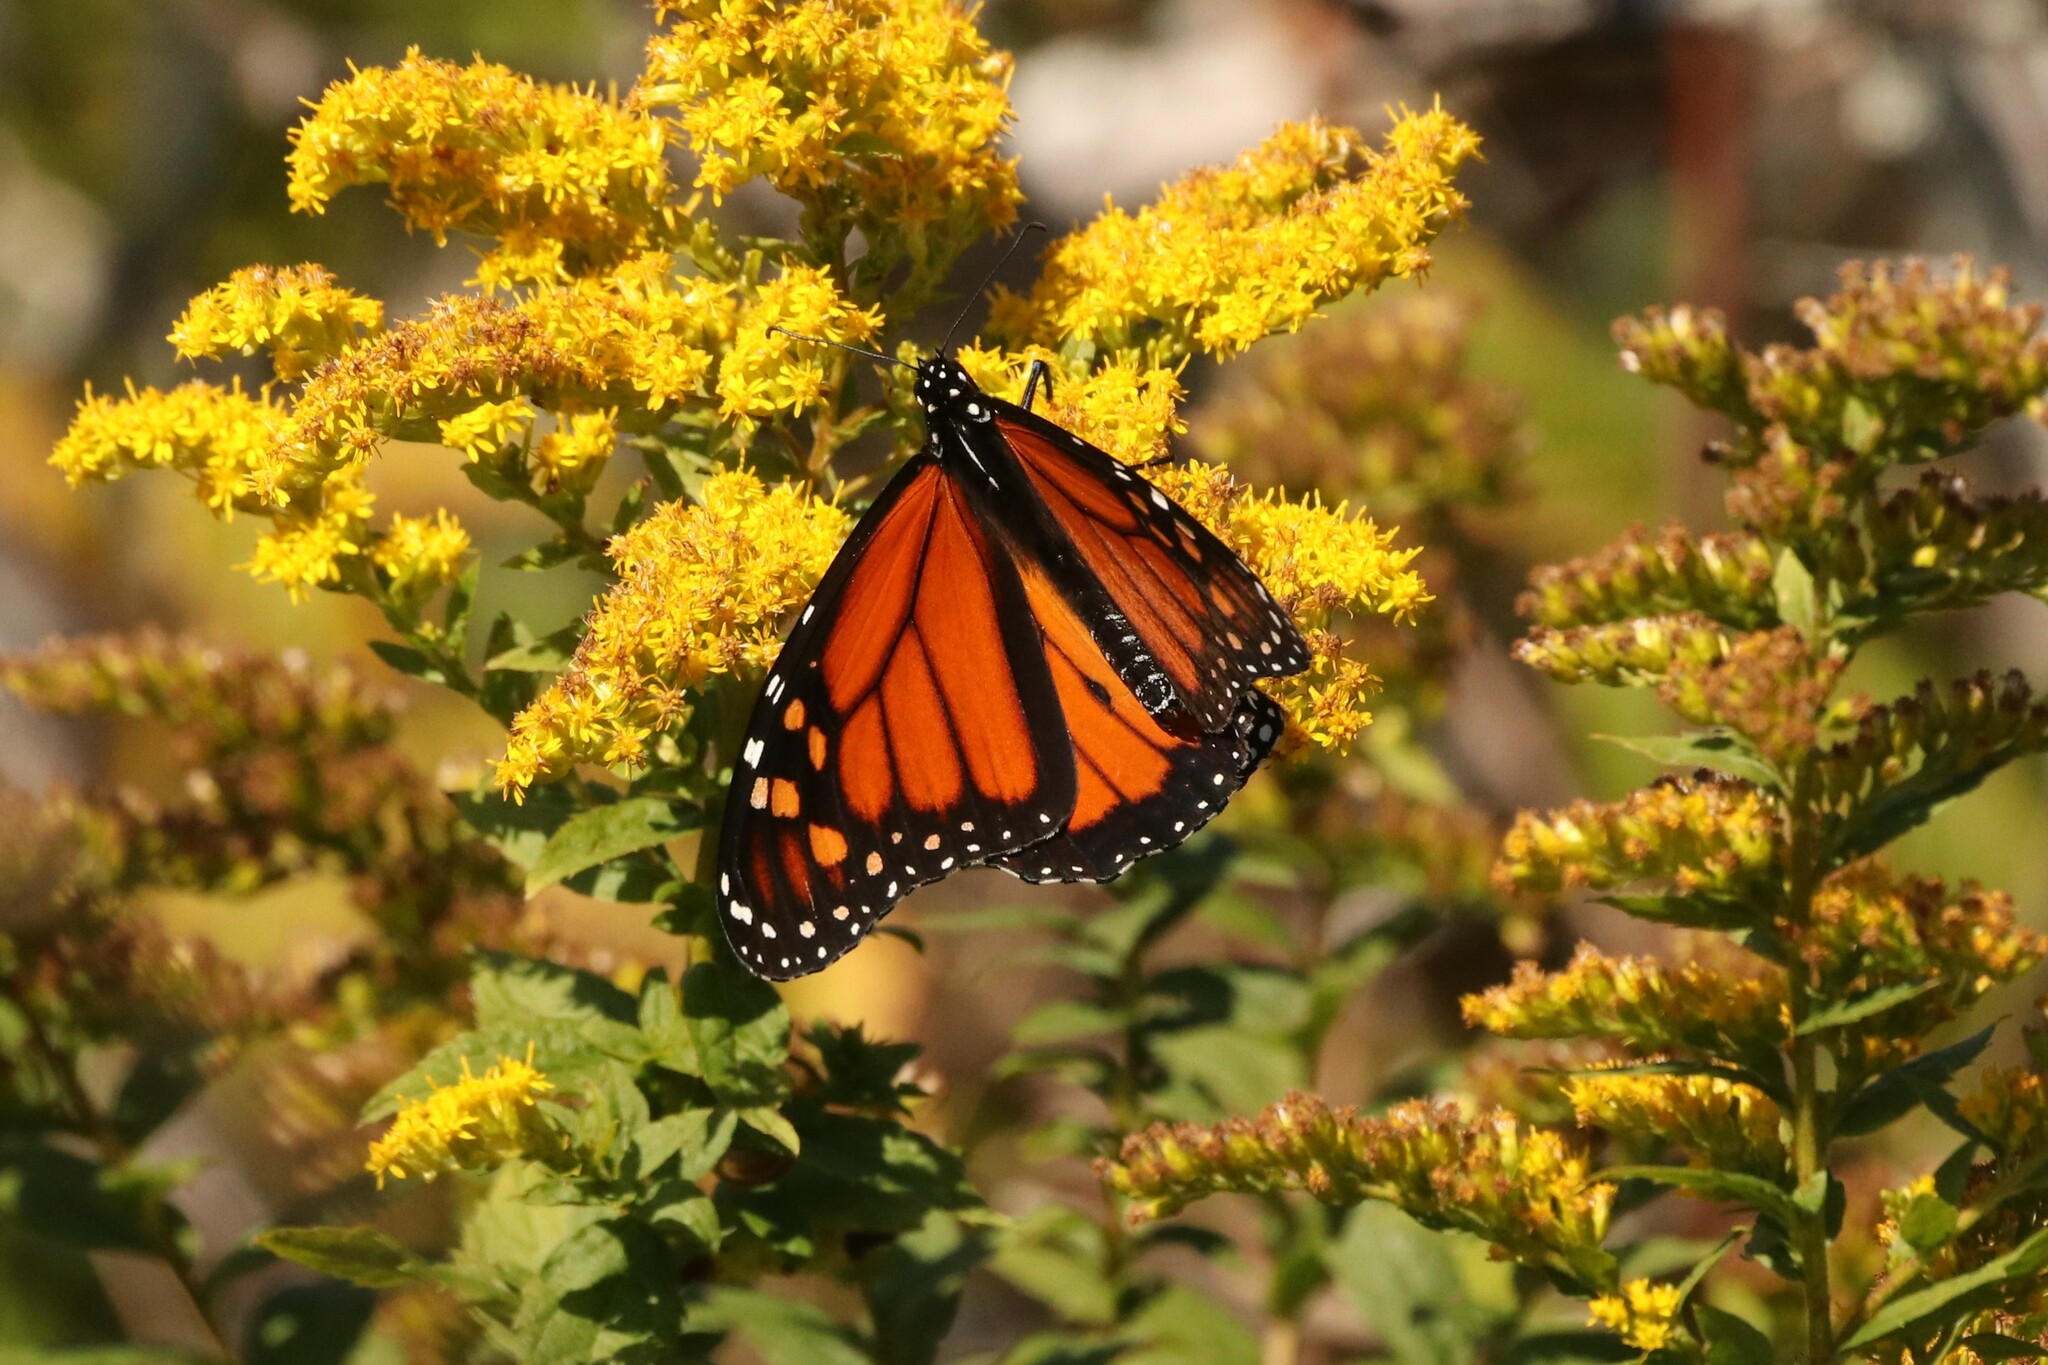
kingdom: Animalia
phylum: Arthropoda
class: Insecta
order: Lepidoptera
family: Nymphalidae
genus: Danaus
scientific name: Danaus plexippus
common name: Monarch
